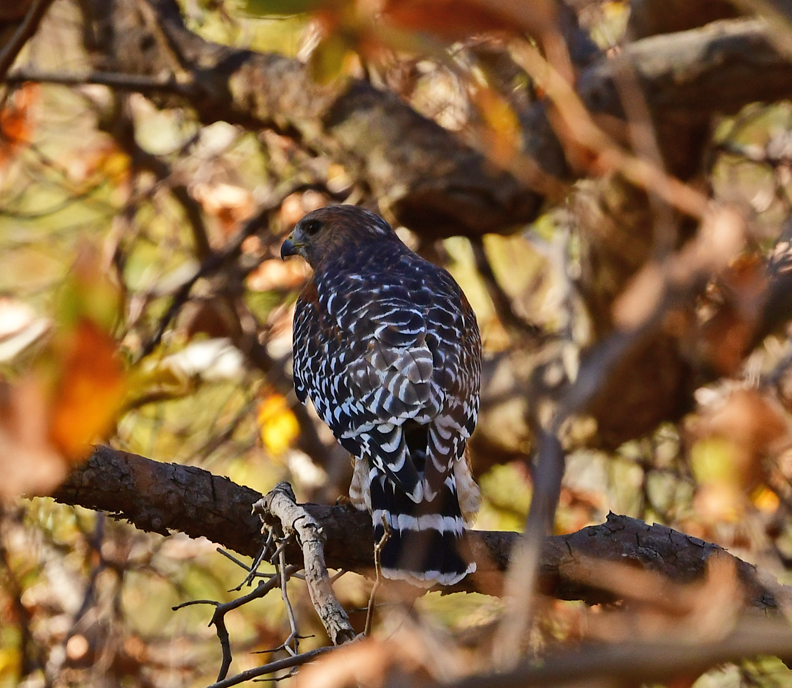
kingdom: Animalia
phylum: Chordata
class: Aves
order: Accipitriformes
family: Accipitridae
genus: Buteo
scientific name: Buteo lineatus
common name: Red-shouldered hawk
